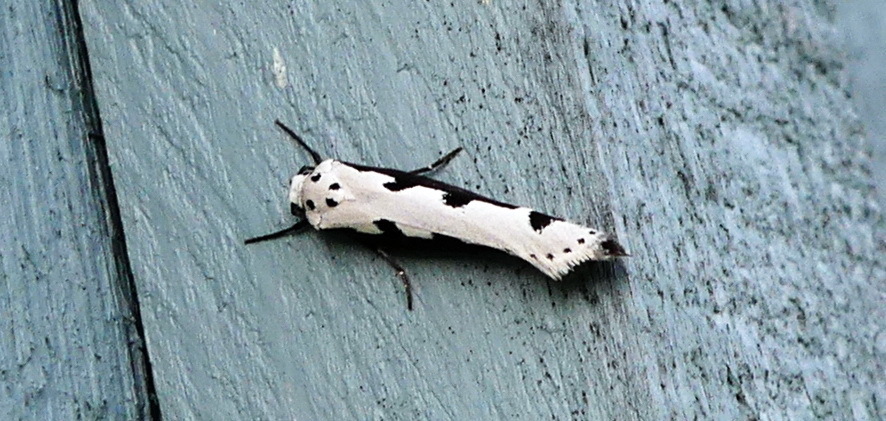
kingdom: Animalia
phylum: Arthropoda
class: Insecta
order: Lepidoptera
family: Ethmiidae
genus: Ethmia
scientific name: Ethmia bipunctella
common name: Bordered ermel
